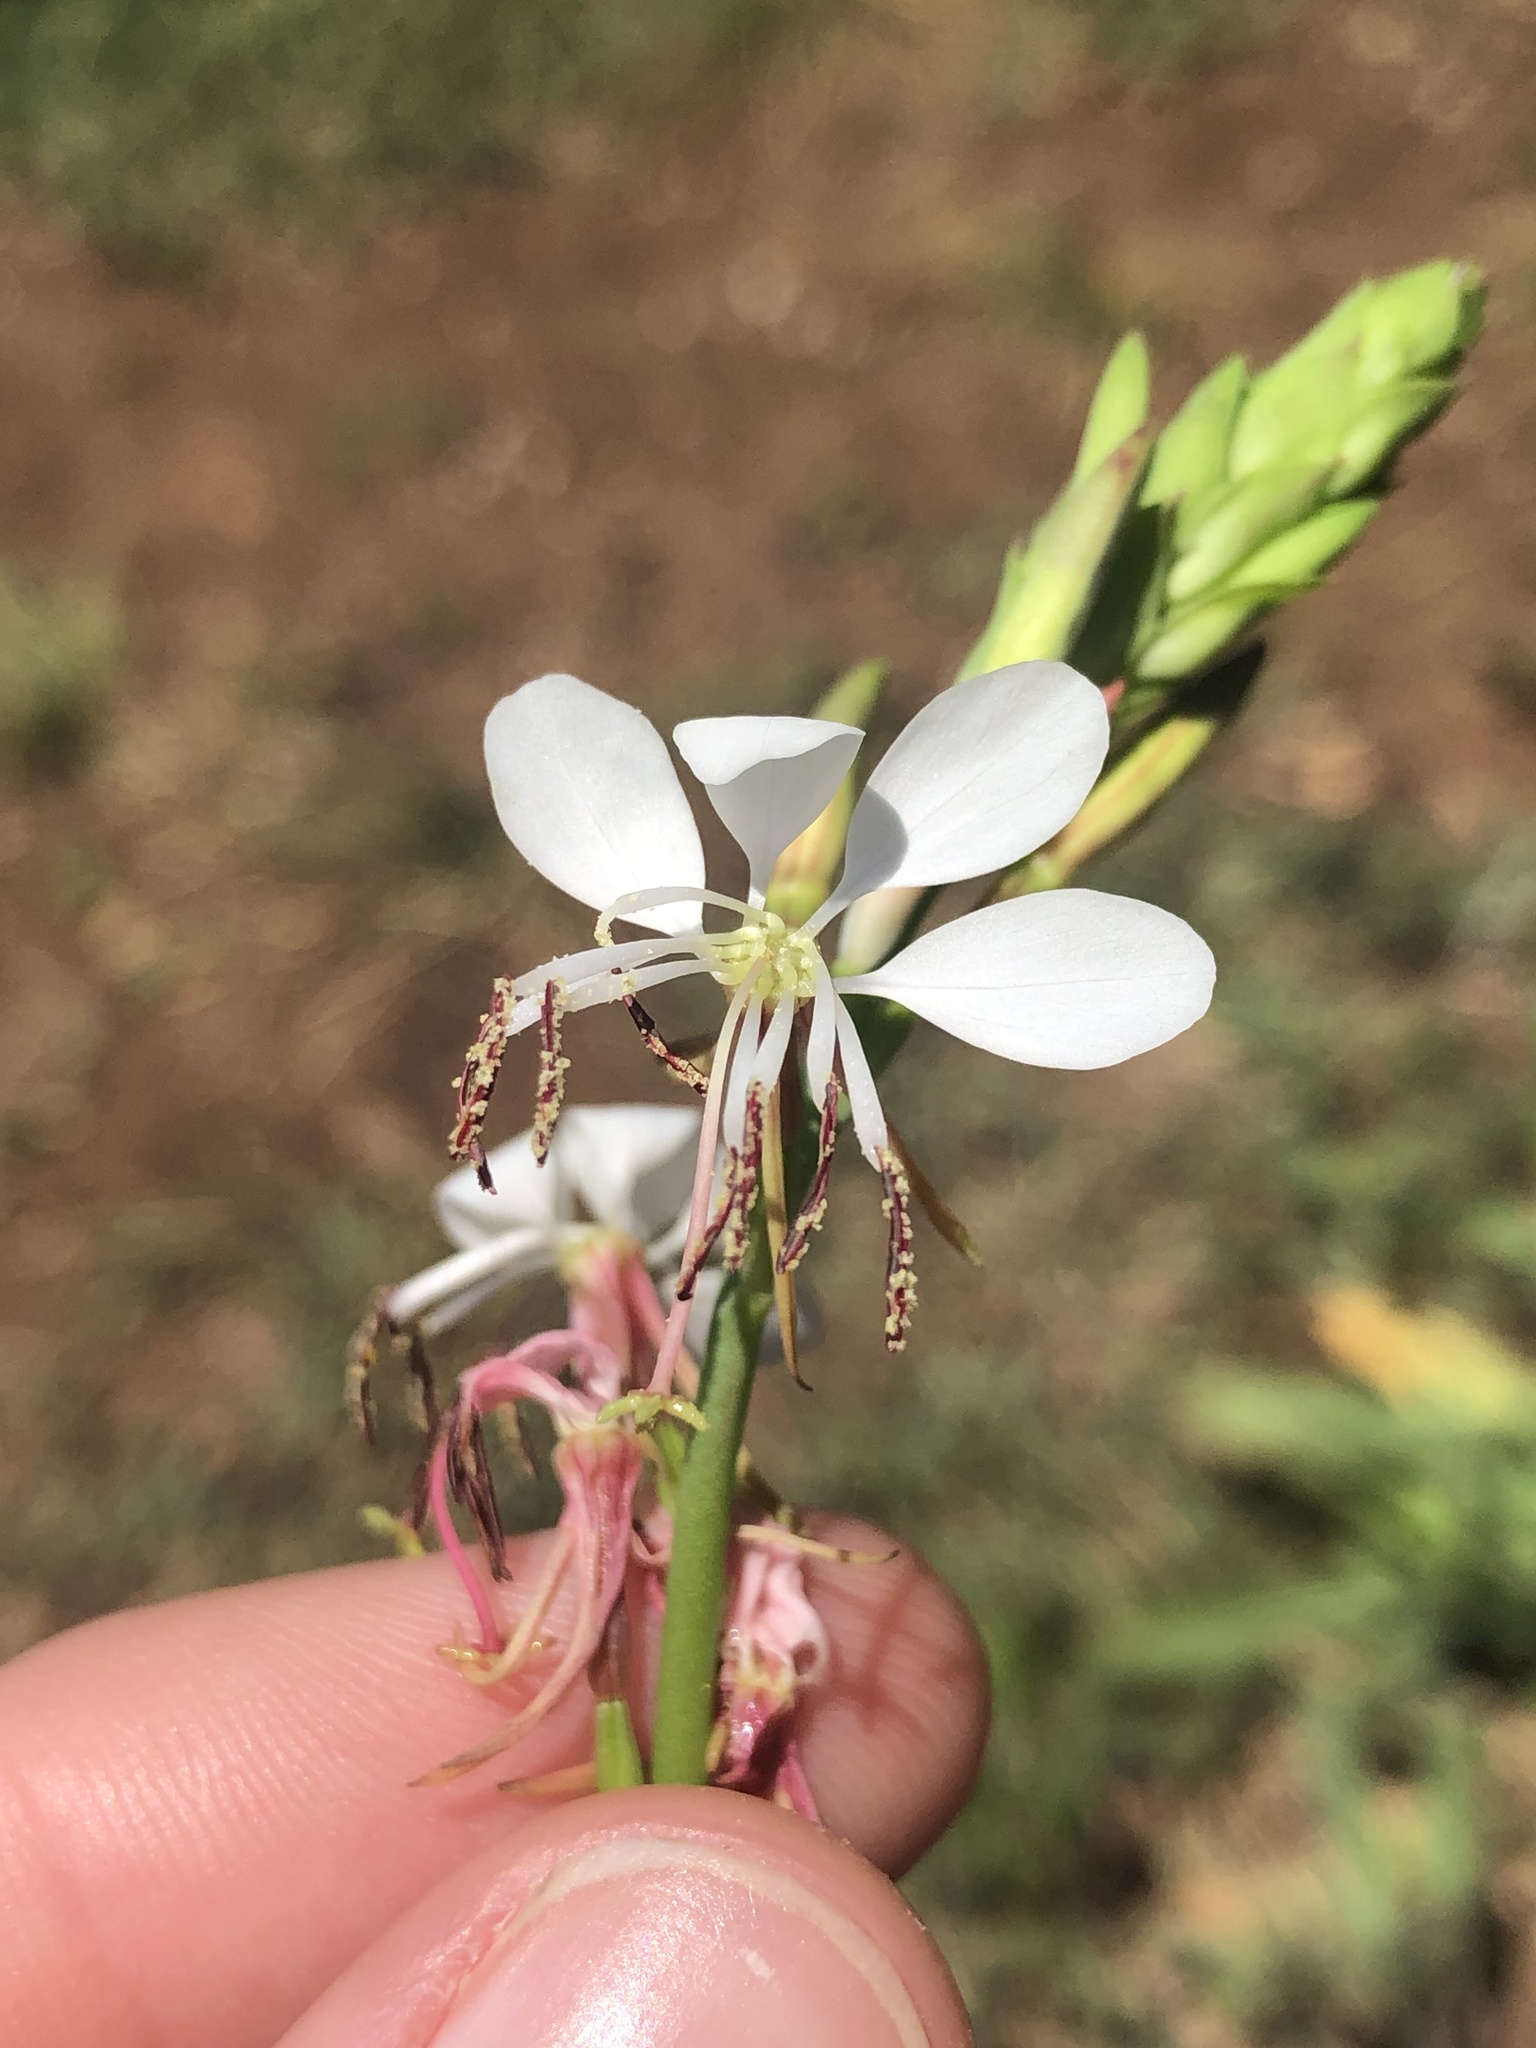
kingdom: Plantae
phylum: Tracheophyta
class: Magnoliopsida
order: Myrtales
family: Onagraceae
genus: Oenothera
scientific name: Oenothera suffulta
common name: Kisses
